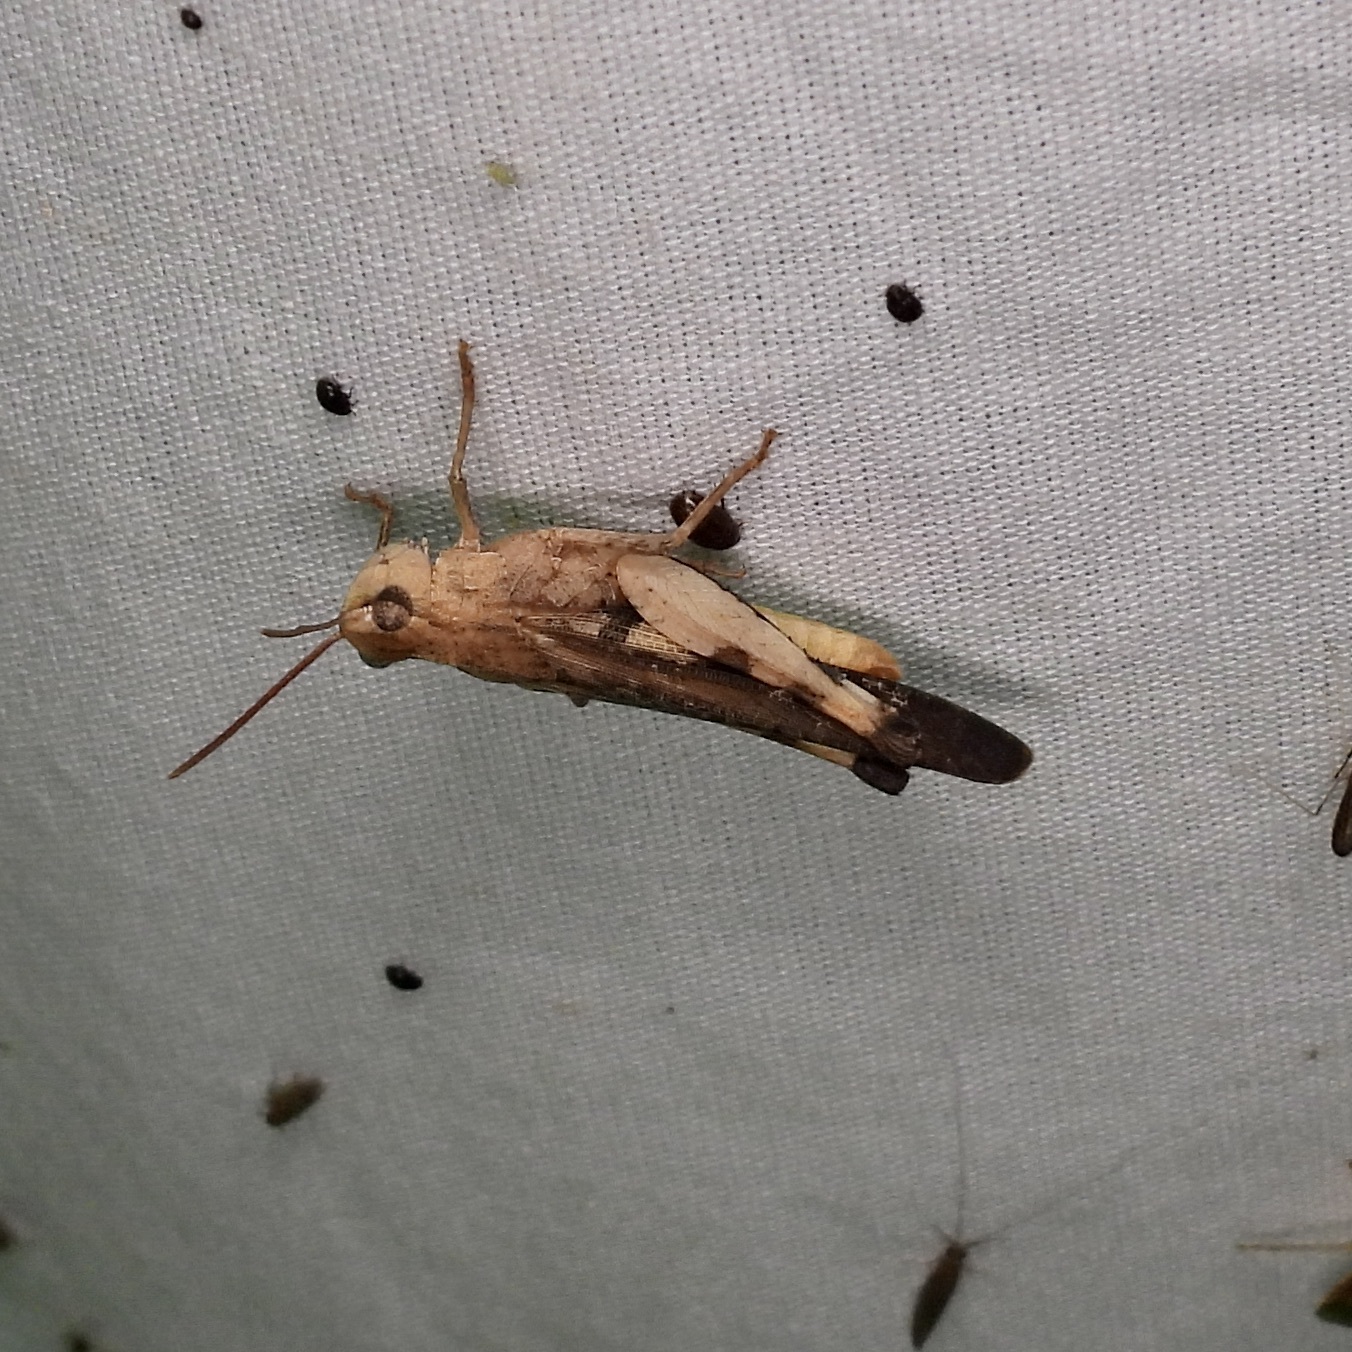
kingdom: Animalia
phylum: Arthropoda
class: Insecta
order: Orthoptera
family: Acrididae
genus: Chortophaga
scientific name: Chortophaga viridifasciata
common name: Green-striped grasshopper
